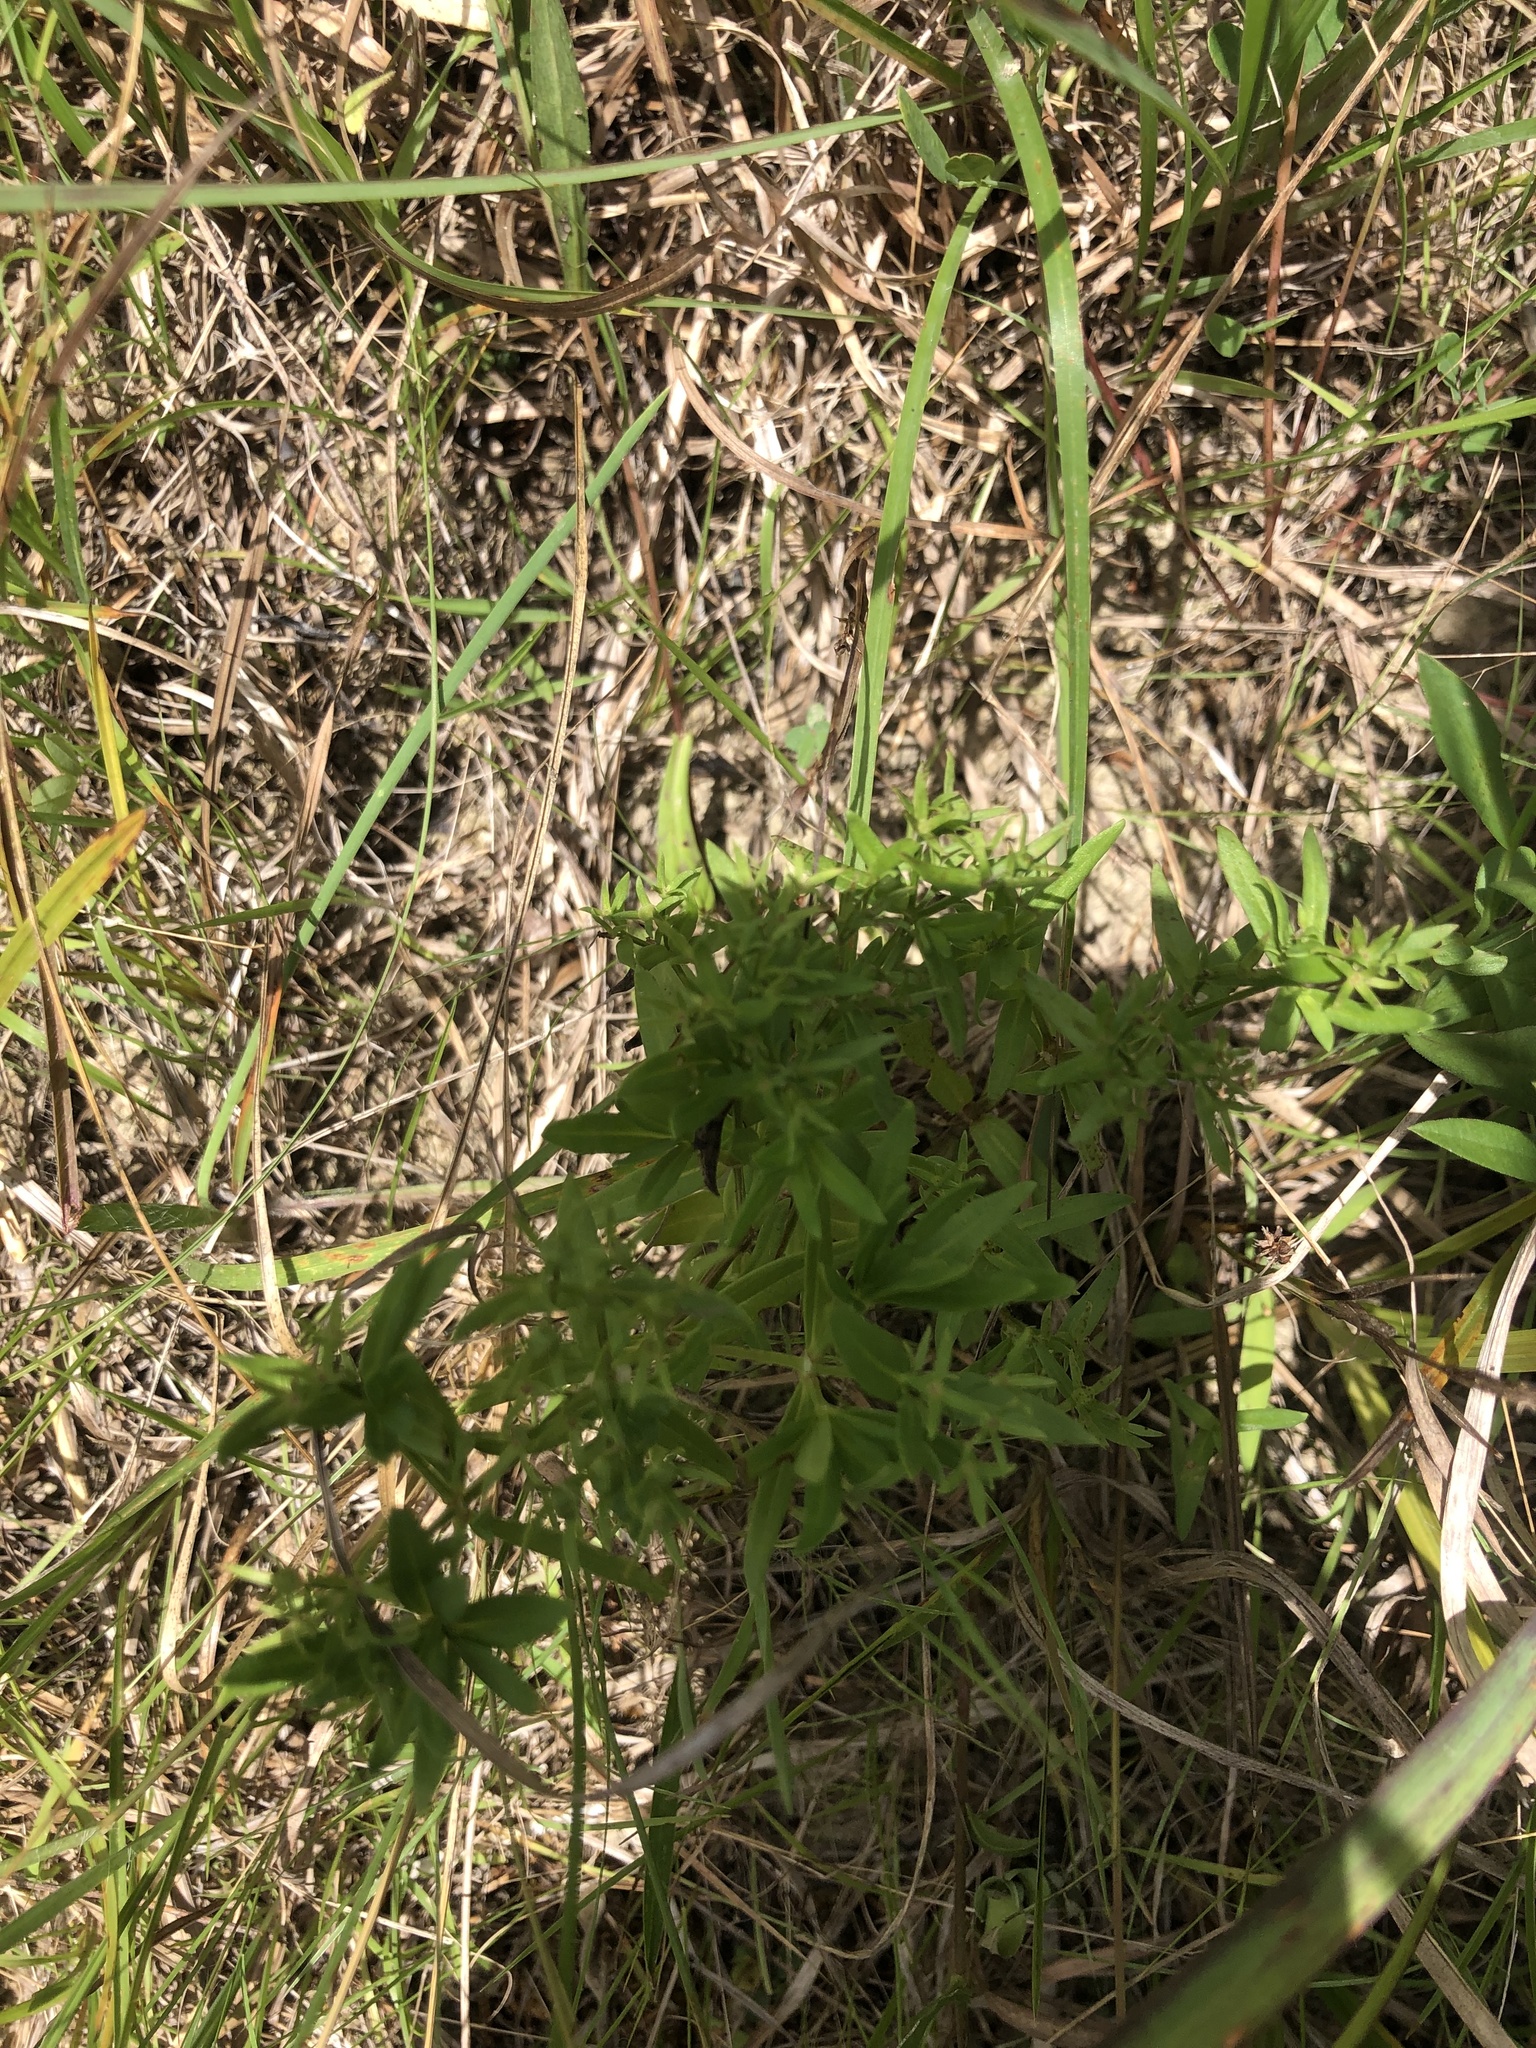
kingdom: Plantae
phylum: Tracheophyta
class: Magnoliopsida
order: Gentianales
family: Rubiaceae
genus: Houstonia
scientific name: Houstonia purpurea
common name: Summer bluet
